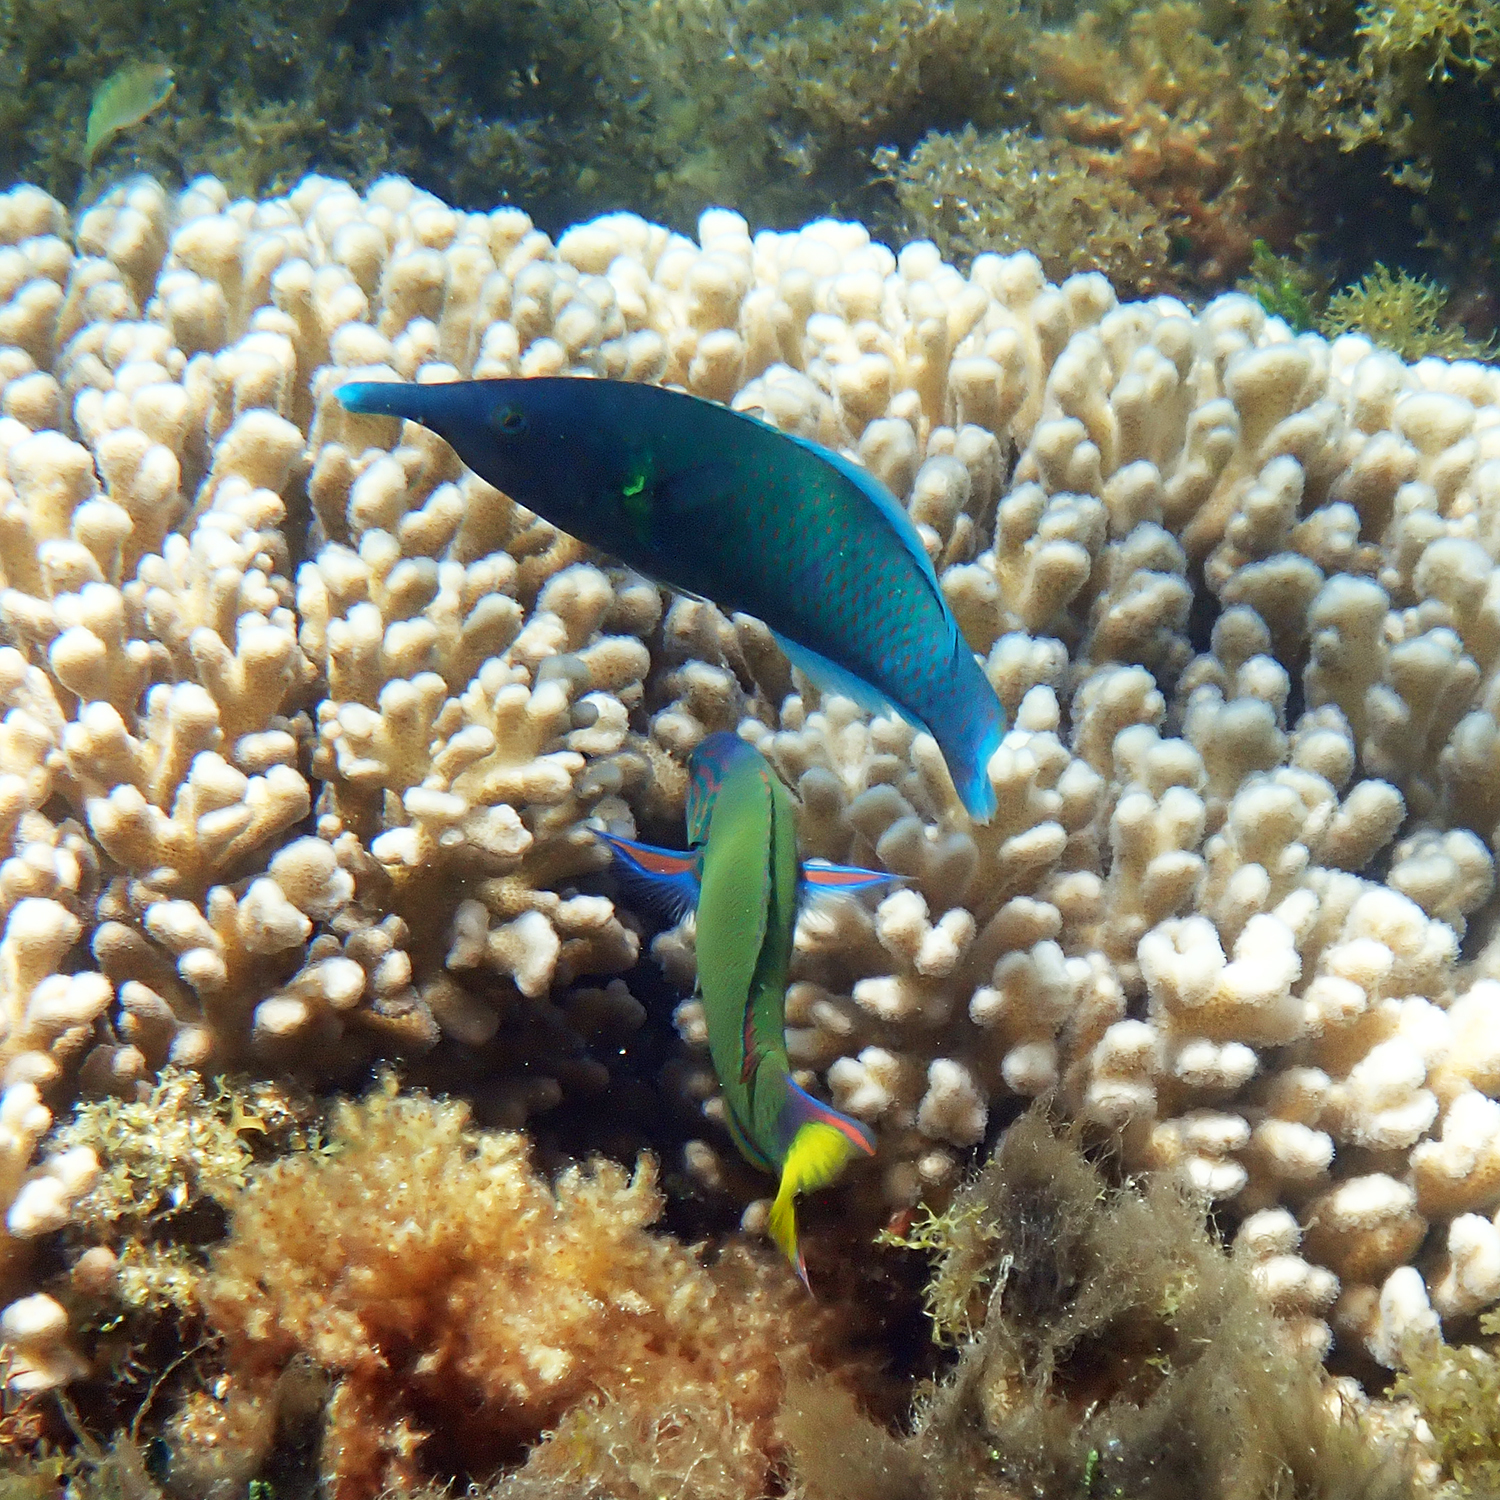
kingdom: Animalia
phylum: Chordata
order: Perciformes
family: Labridae
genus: Gomphosus
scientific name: Gomphosus varius
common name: Bird wrasse
